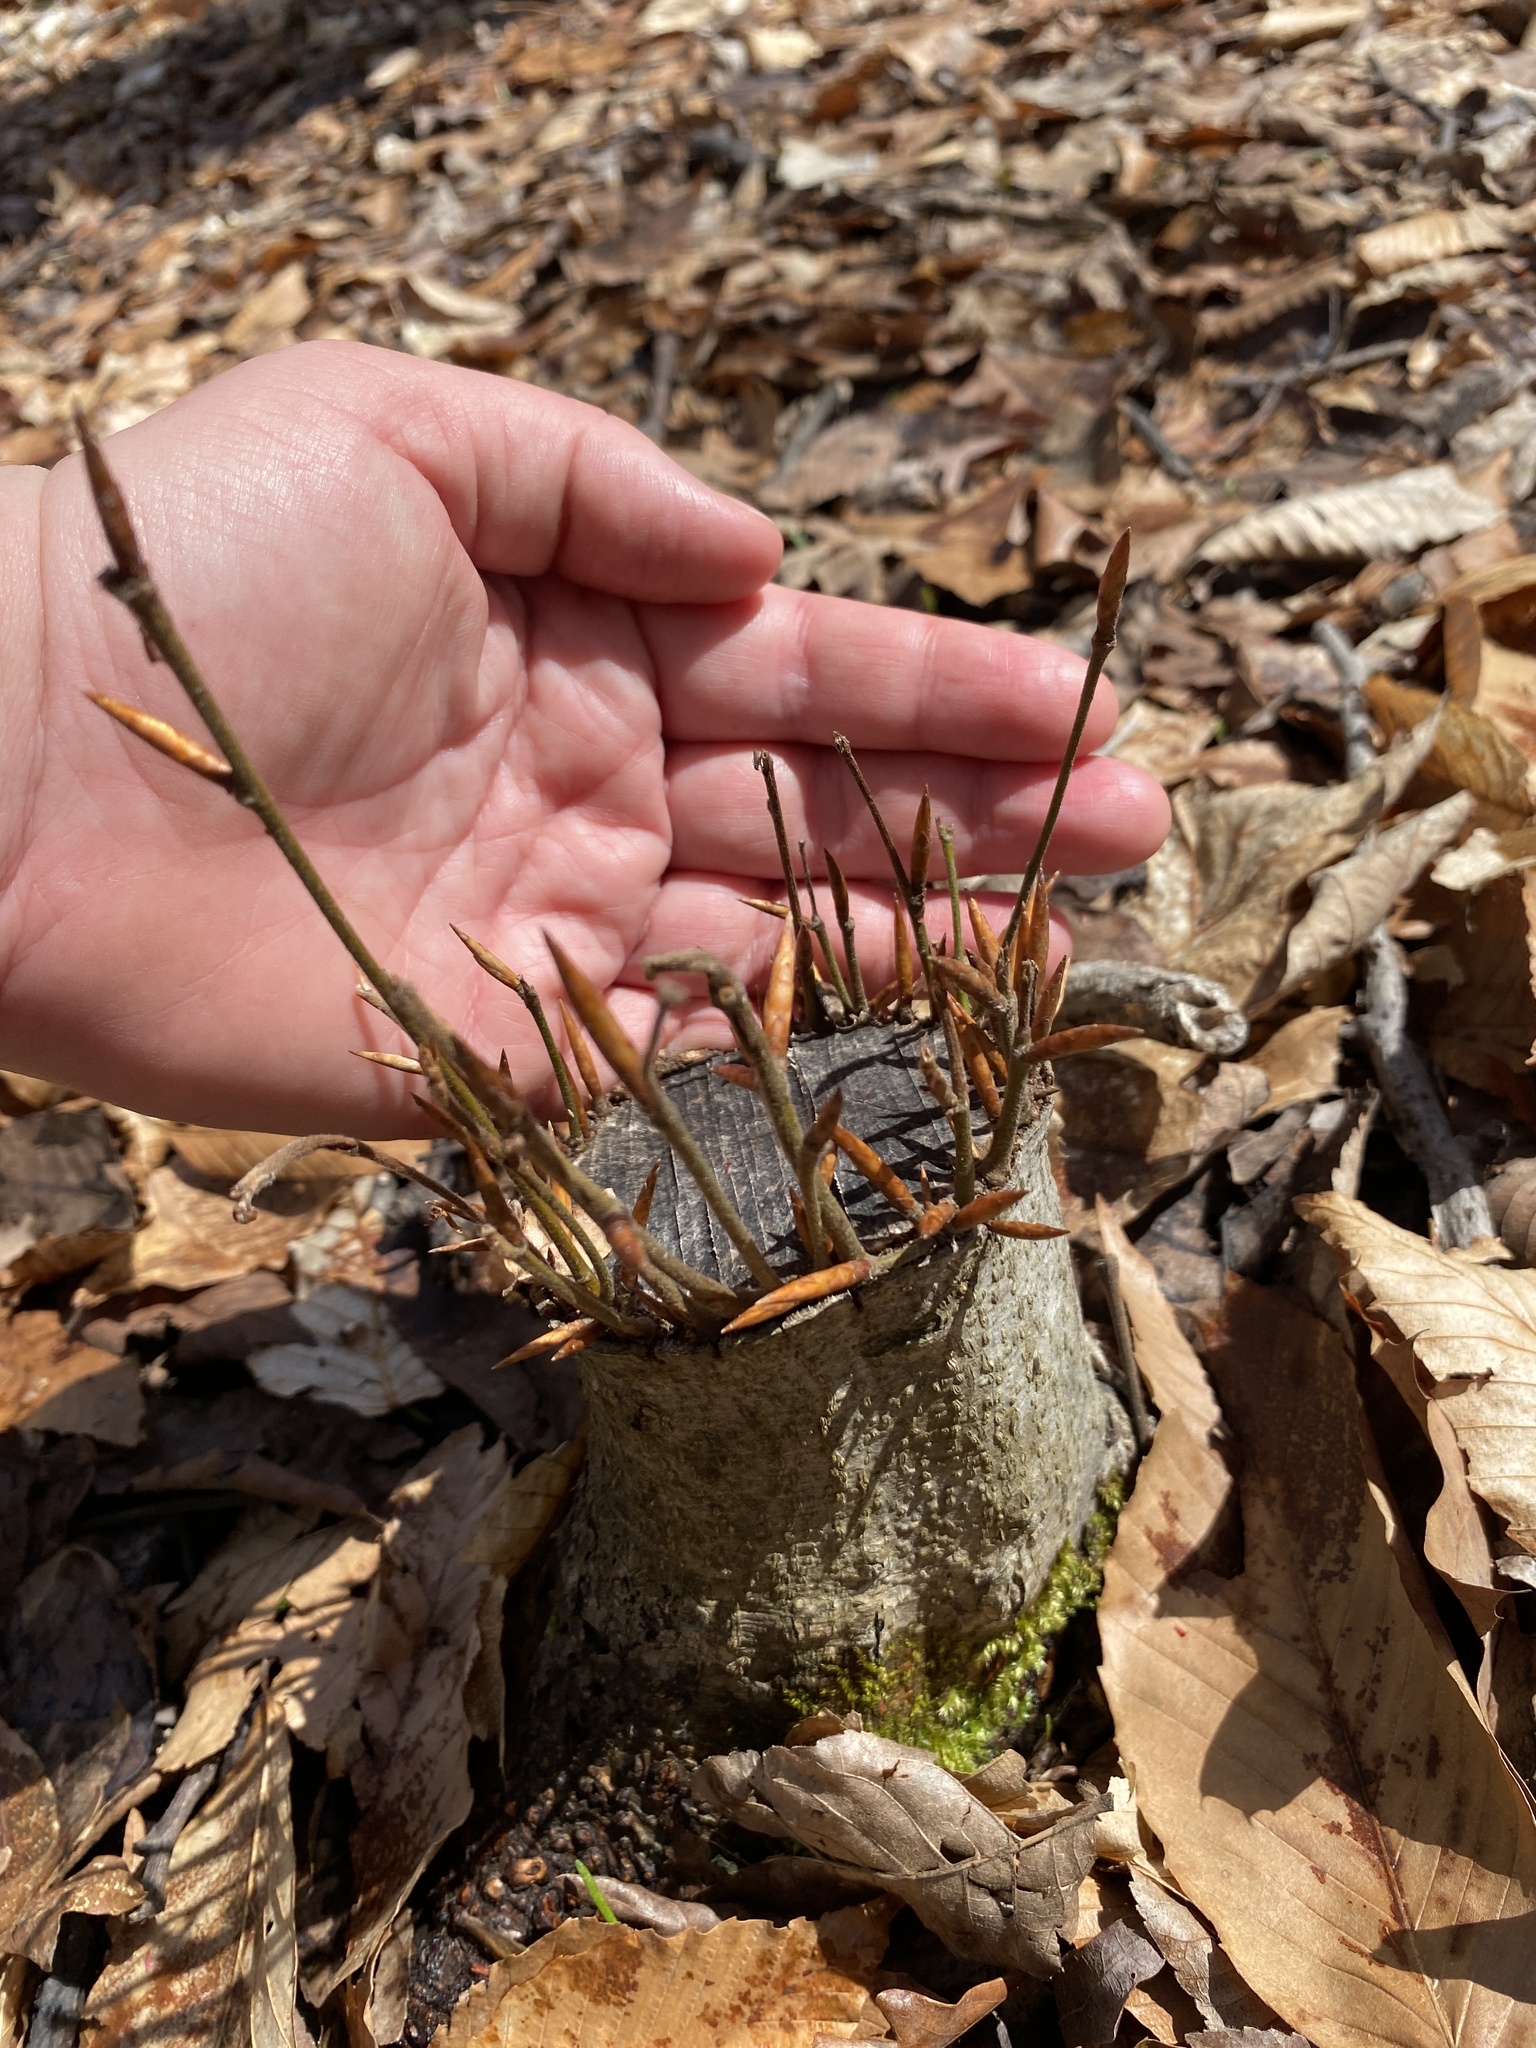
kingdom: Plantae
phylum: Tracheophyta
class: Magnoliopsida
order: Fagales
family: Fagaceae
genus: Fagus
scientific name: Fagus grandifolia
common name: American beech
